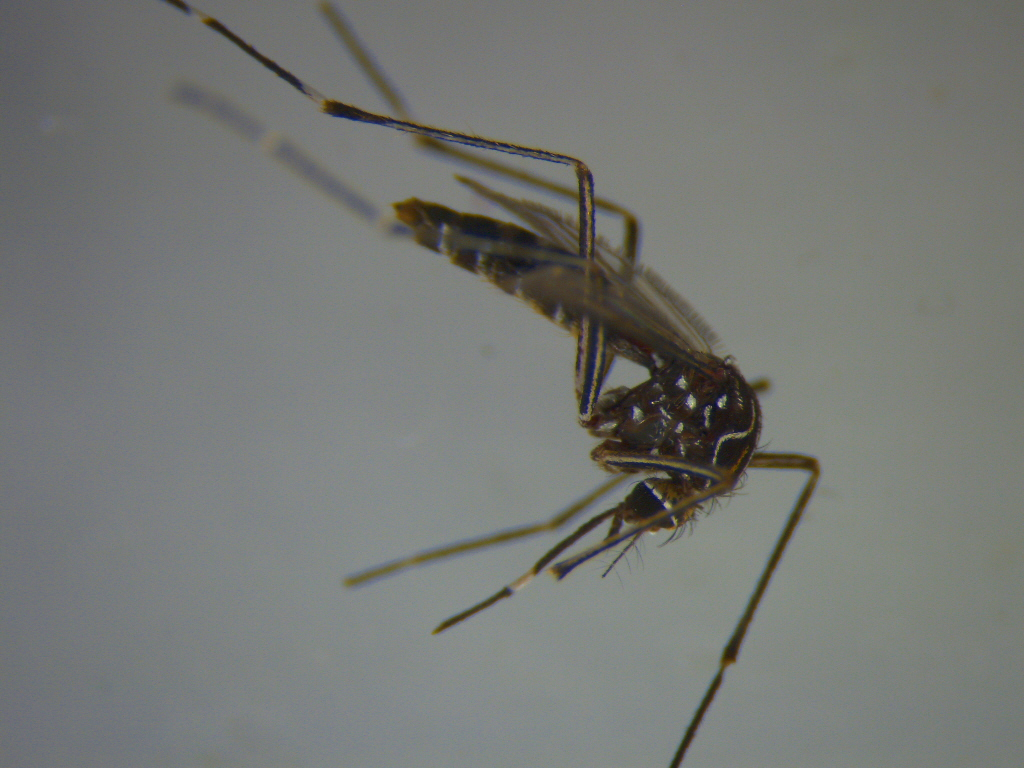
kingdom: Animalia
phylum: Arthropoda
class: Insecta
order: Diptera
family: Culicidae
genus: Aedes
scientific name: Aedes notoscriptus
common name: Australian backyard mosquito
